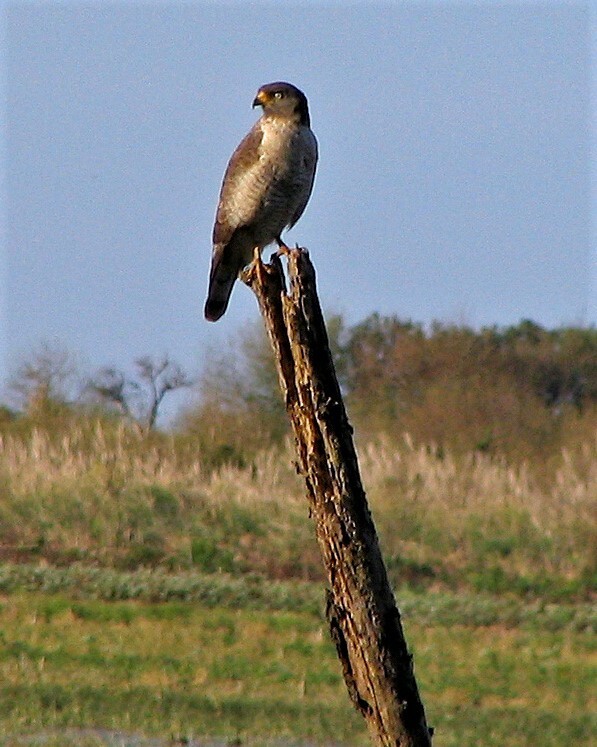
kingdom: Animalia
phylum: Chordata
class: Aves
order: Accipitriformes
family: Accipitridae
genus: Rupornis
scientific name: Rupornis magnirostris
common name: Roadside hawk
